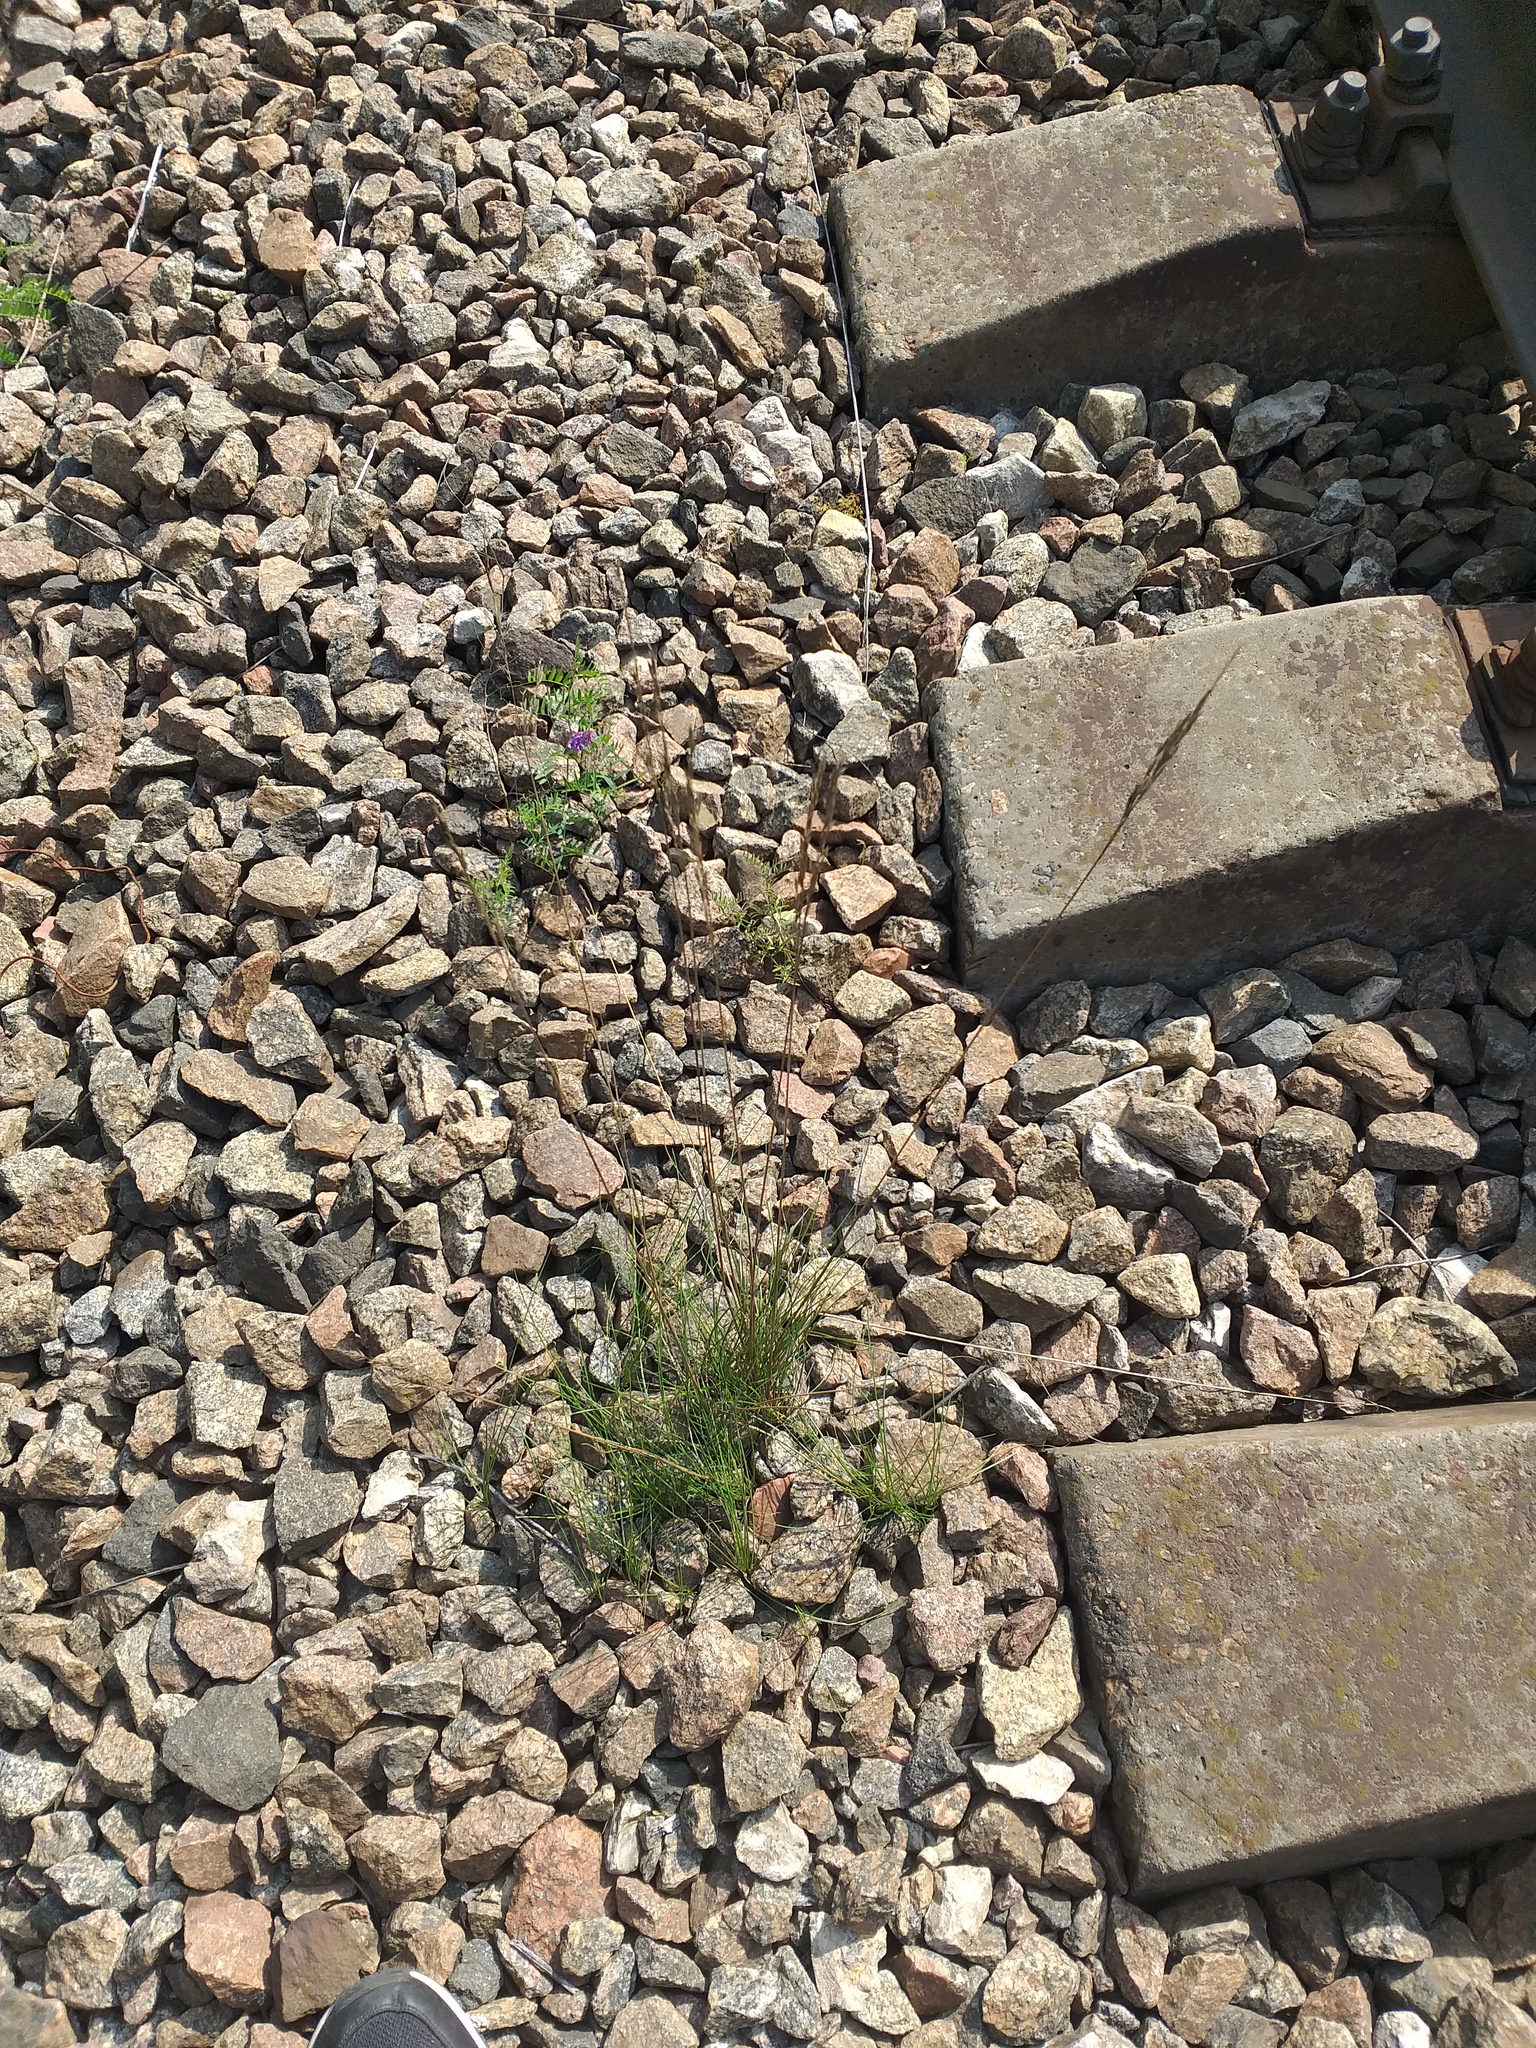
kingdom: Plantae
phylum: Tracheophyta
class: Liliopsida
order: Poales
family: Poaceae
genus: Festuca
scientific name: Festuca rubra
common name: Red fescue
